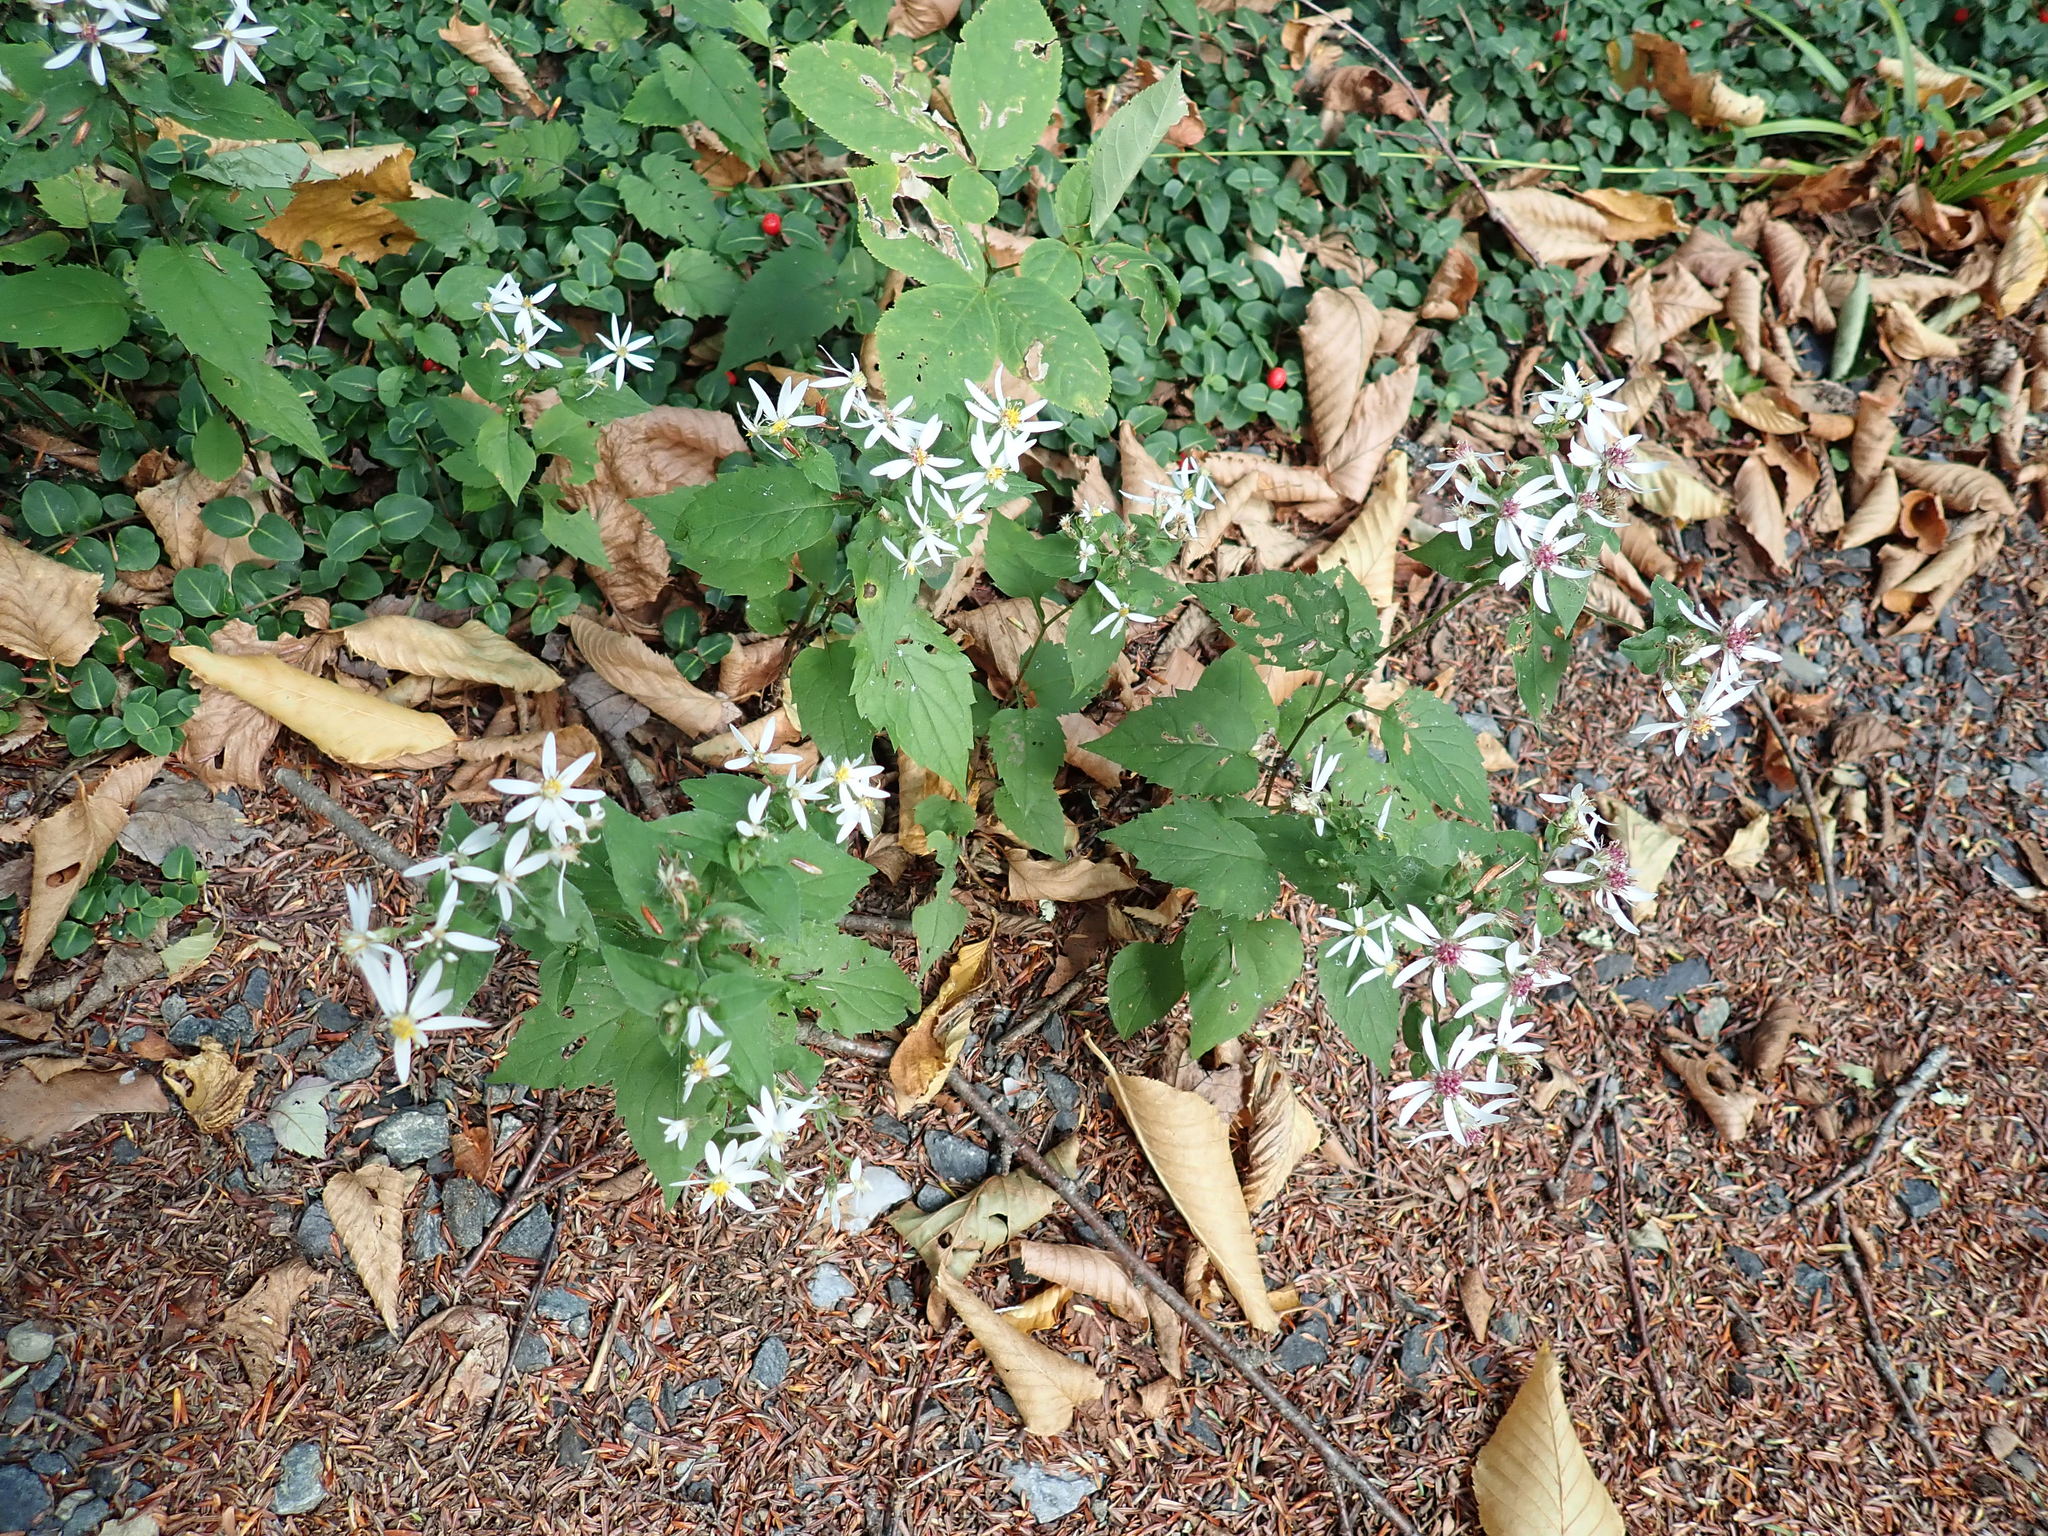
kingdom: Plantae
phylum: Tracheophyta
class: Magnoliopsida
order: Asterales
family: Asteraceae
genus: Eurybia
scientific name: Eurybia divaricata
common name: White wood aster
